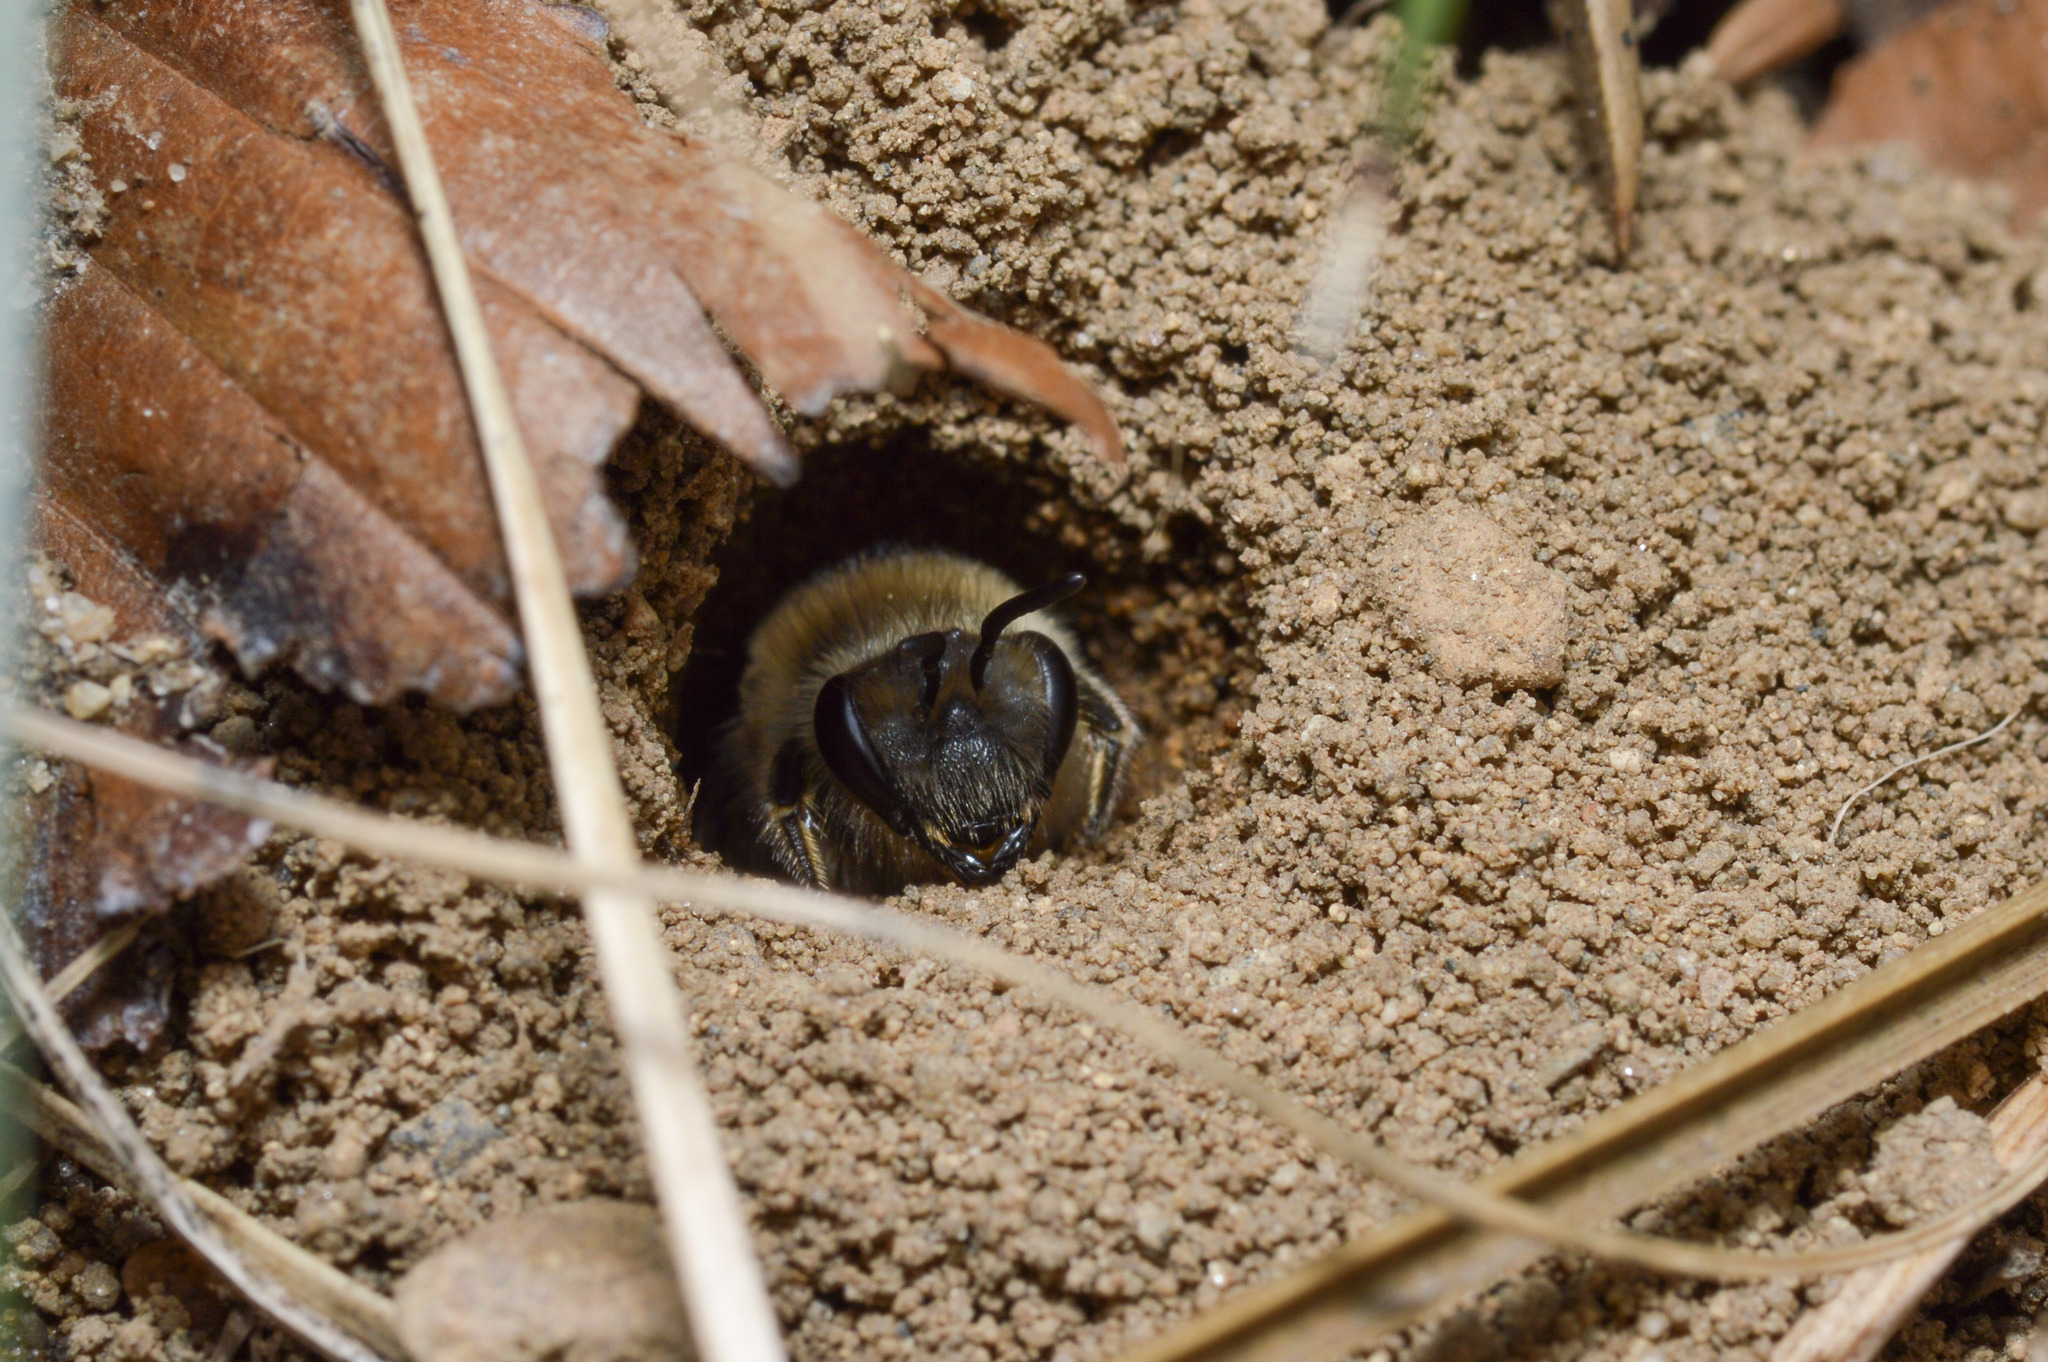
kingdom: Animalia
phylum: Arthropoda
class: Insecta
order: Hymenoptera
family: Colletidae
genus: Colletes
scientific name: Colletes inaequalis
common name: Unequal cellophane bee
